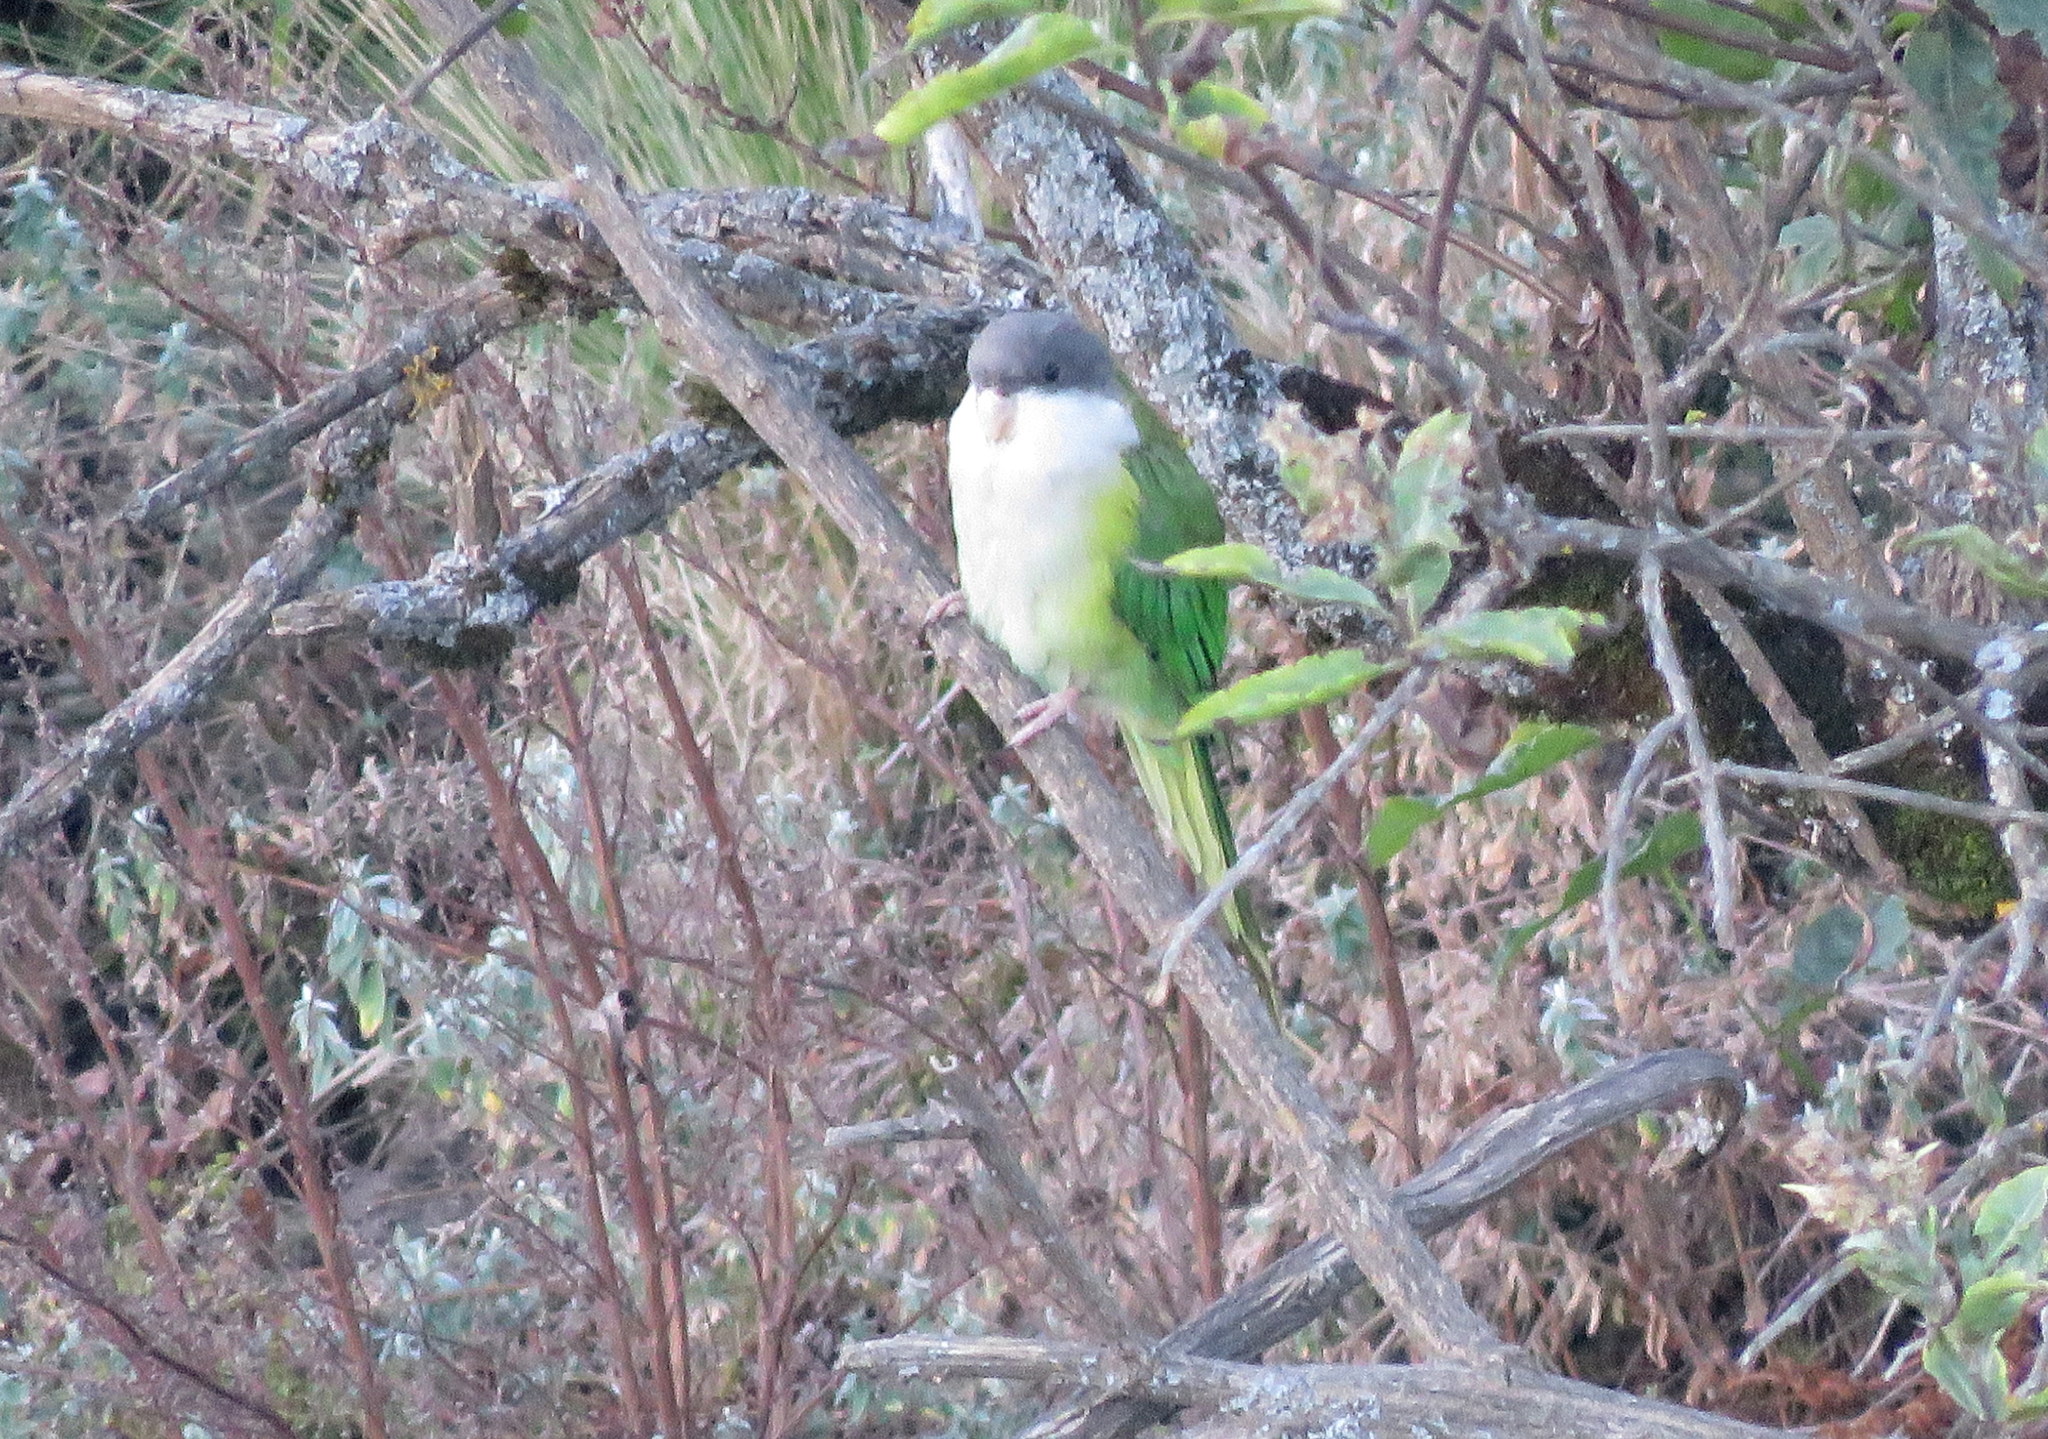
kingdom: Animalia
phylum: Chordata
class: Aves
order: Psittaciformes
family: Psittacidae
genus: Psilopsiagon
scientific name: Psilopsiagon aymara
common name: Grey-hooded parakeet
